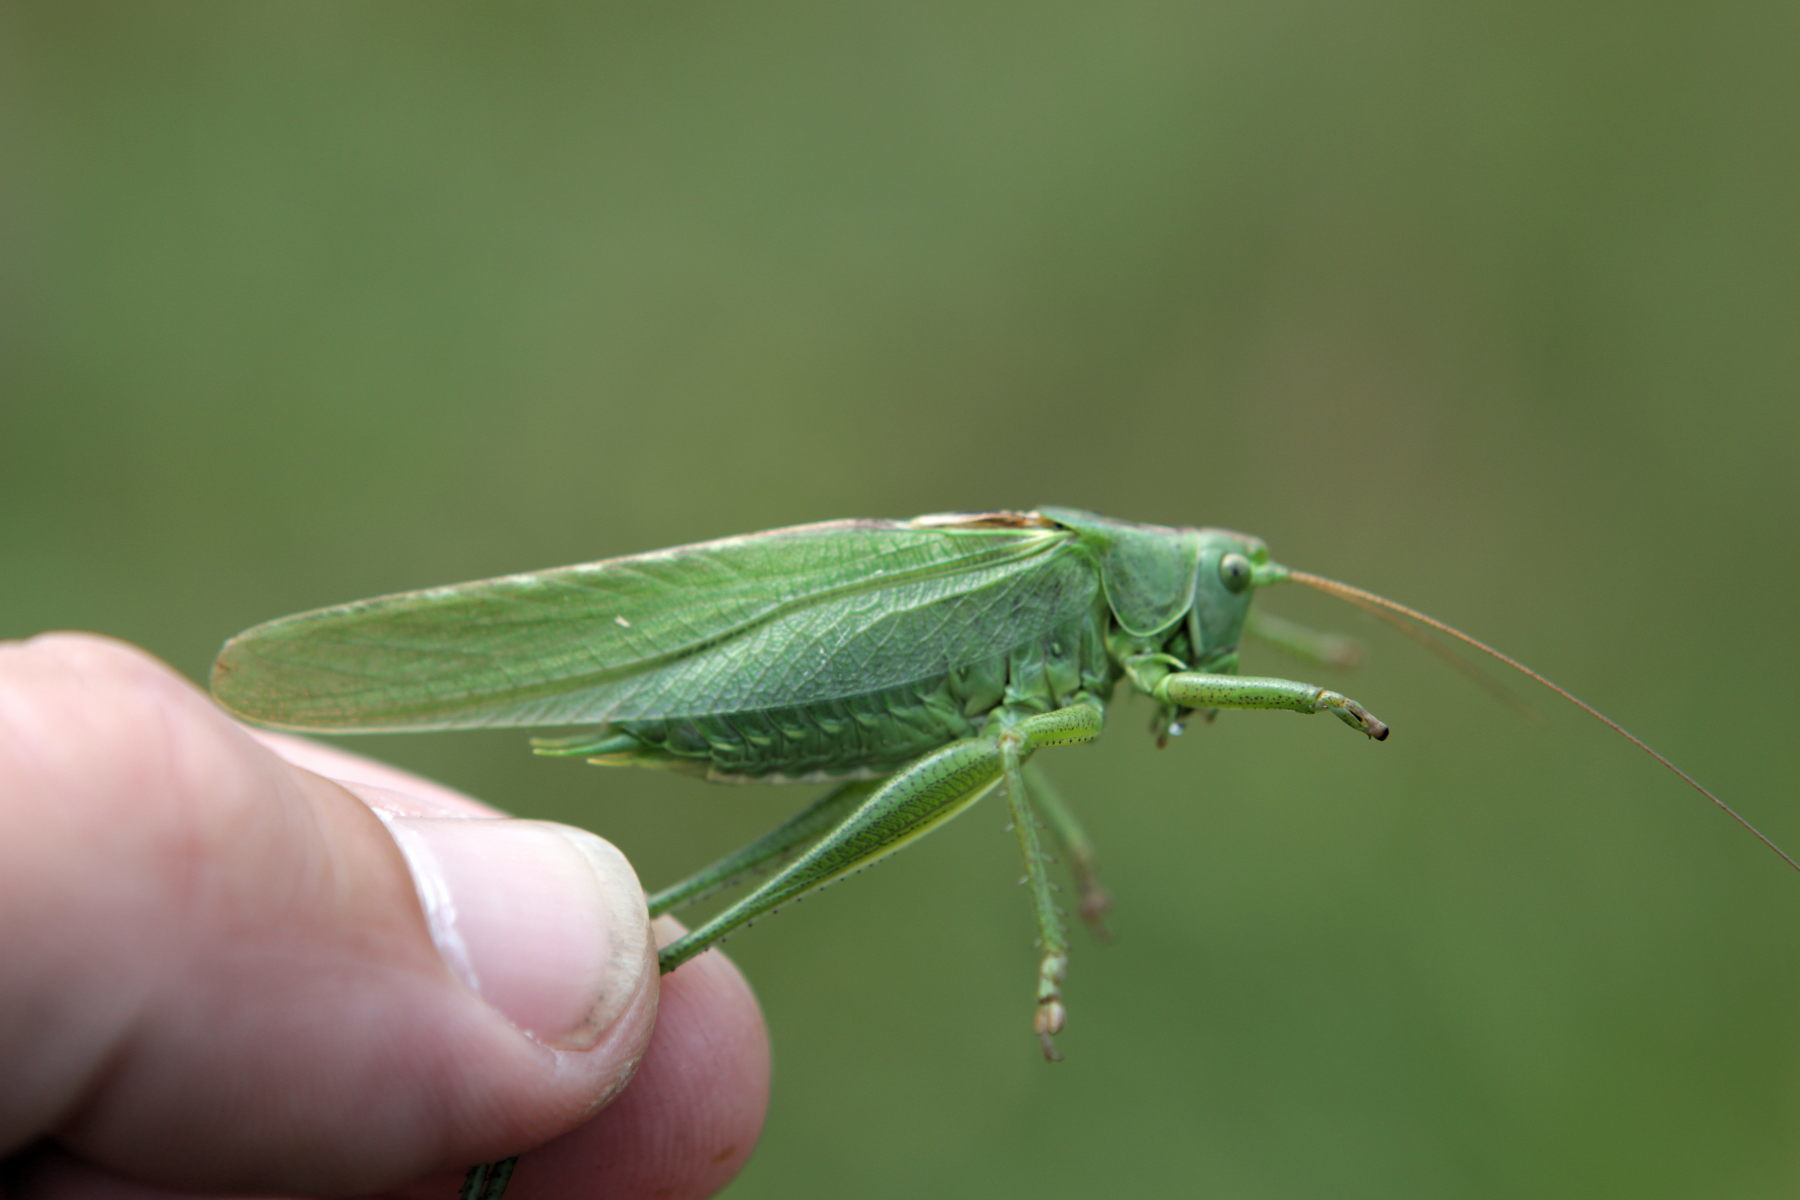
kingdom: Animalia
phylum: Arthropoda
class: Insecta
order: Orthoptera
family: Tettigoniidae
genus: Tettigonia
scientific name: Tettigonia viridissima
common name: Great green bush-cricket
